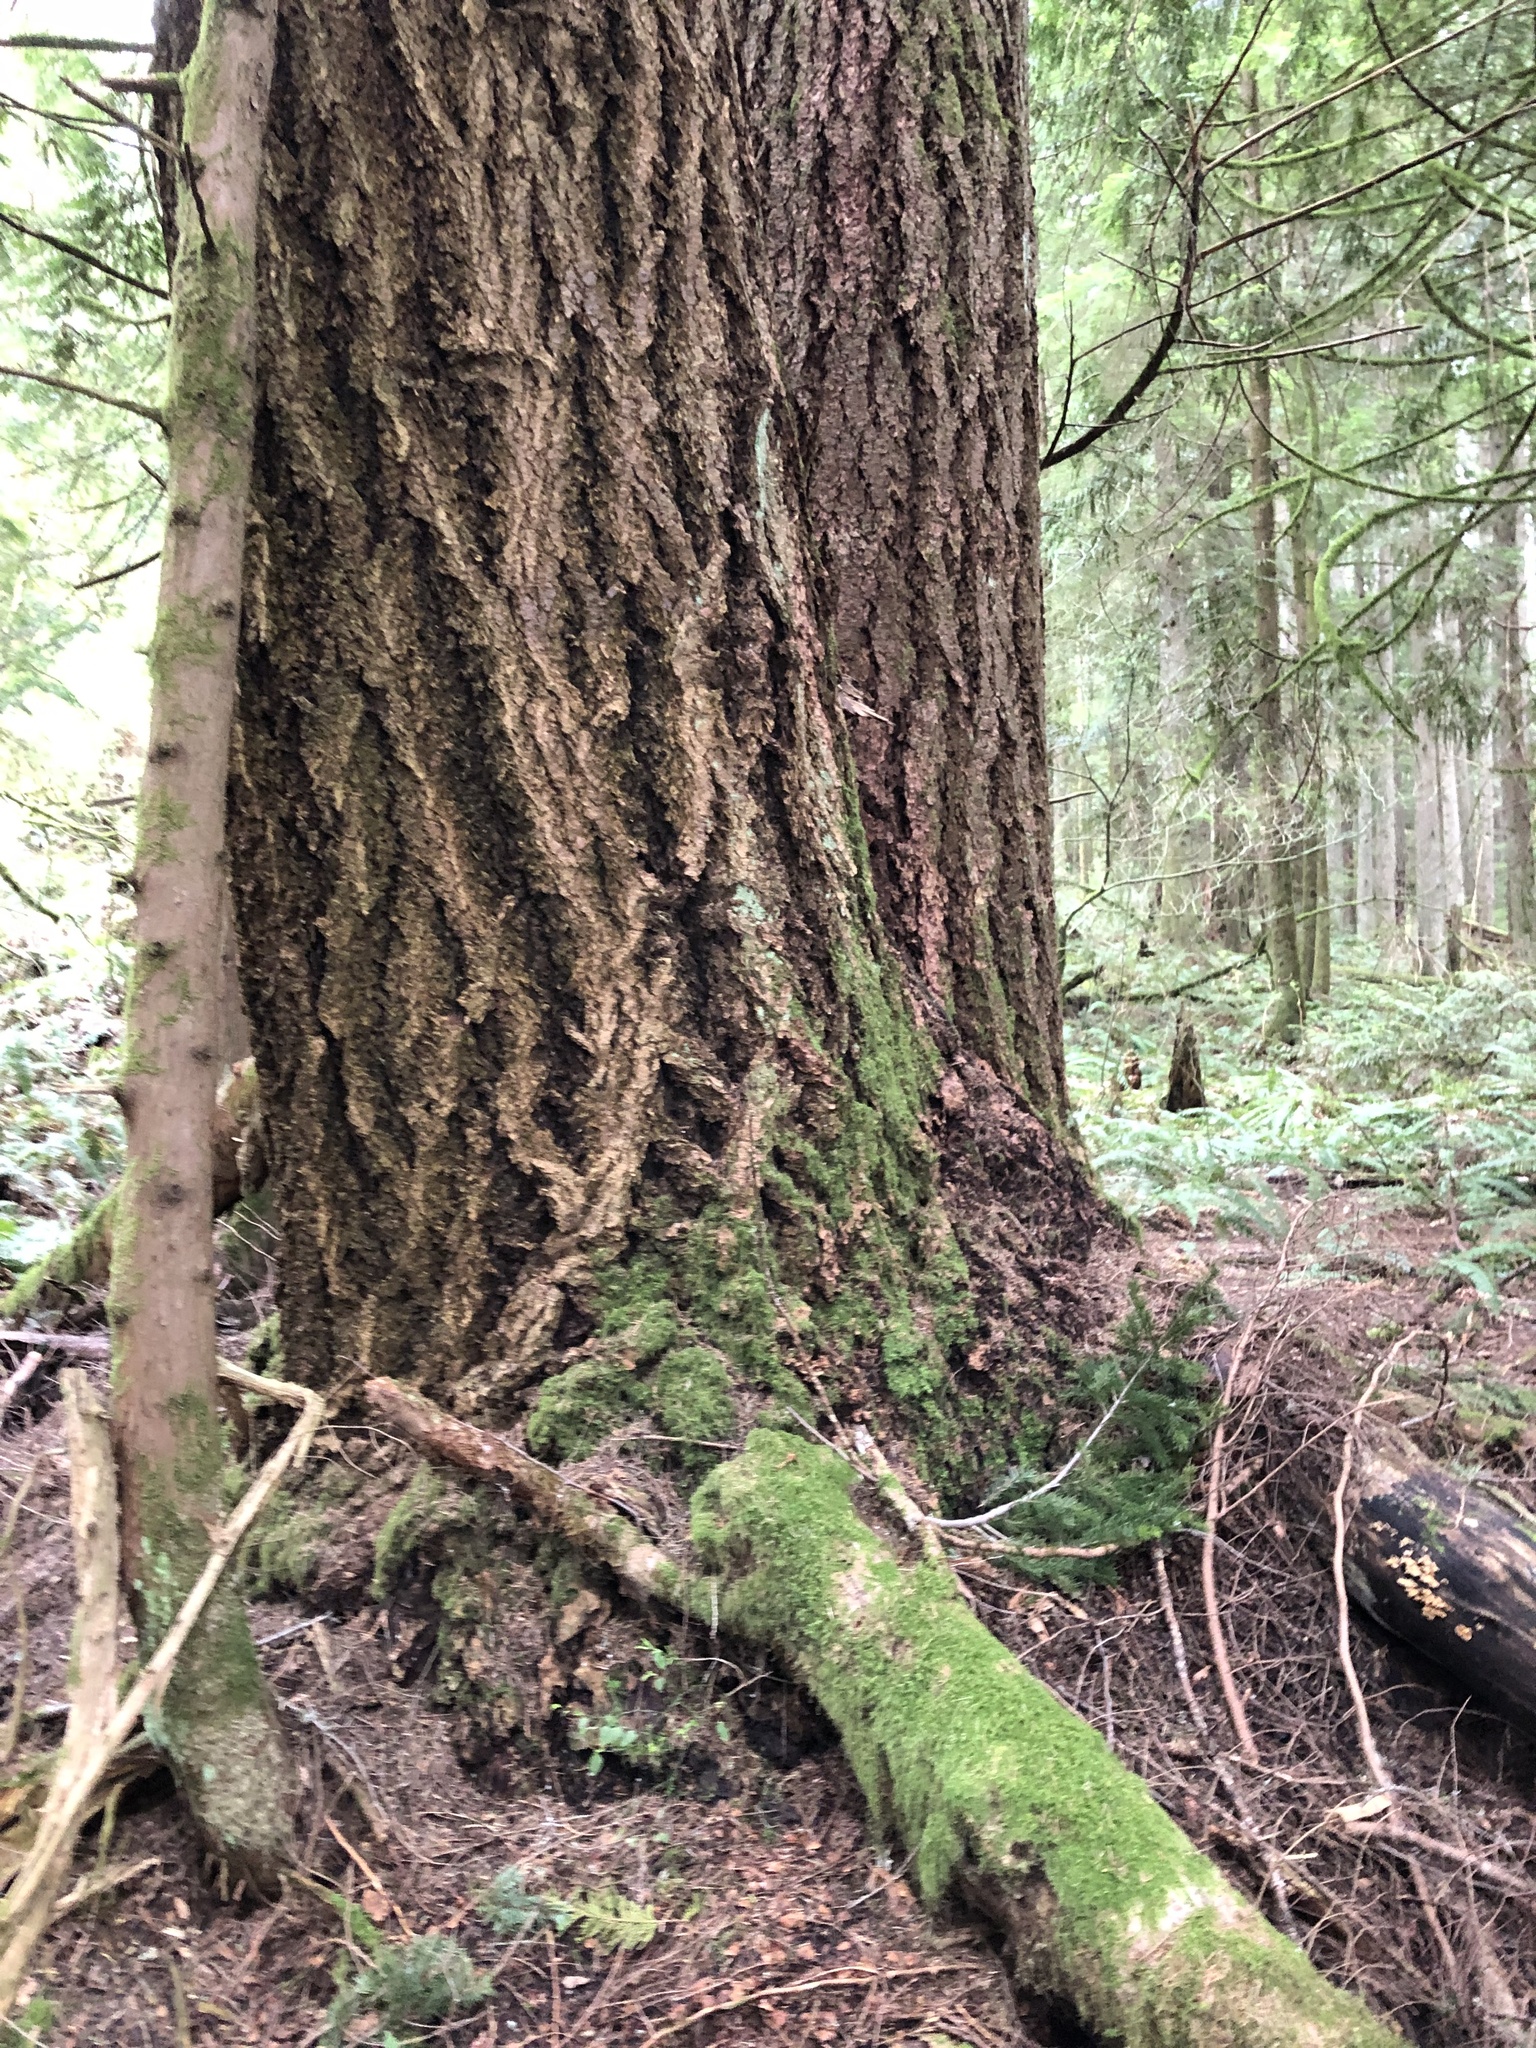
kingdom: Plantae
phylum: Tracheophyta
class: Pinopsida
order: Pinales
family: Pinaceae
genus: Pseudotsuga
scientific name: Pseudotsuga menziesii
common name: Douglas fir
